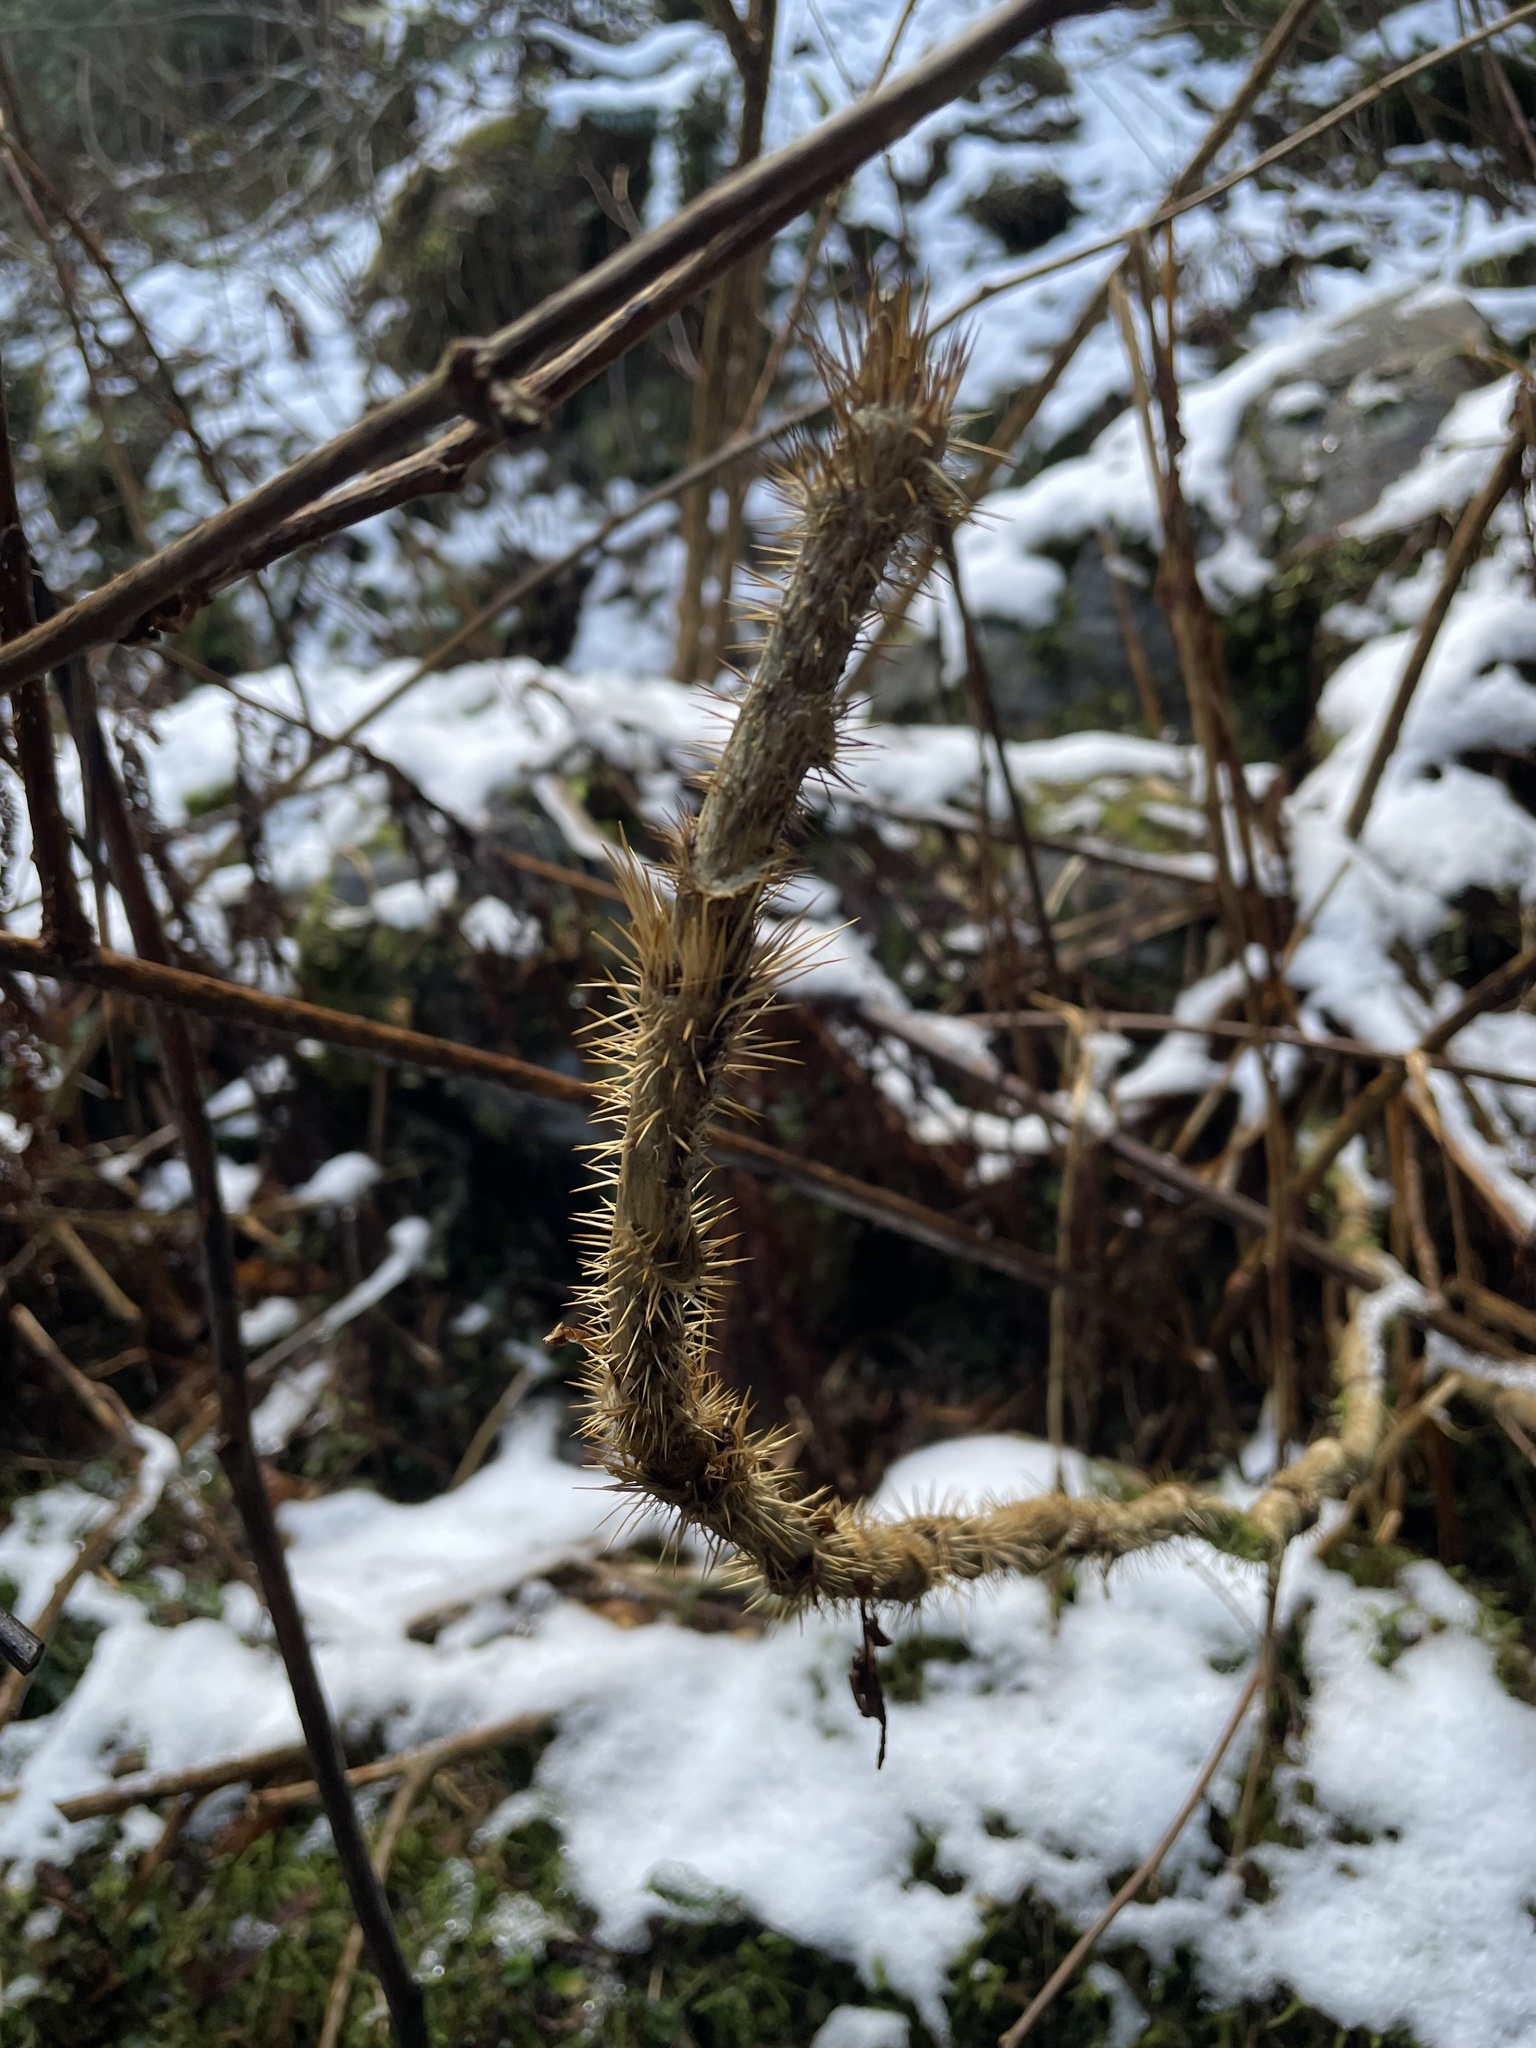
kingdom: Plantae
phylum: Tracheophyta
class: Magnoliopsida
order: Apiales
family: Araliaceae
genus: Oplopanax
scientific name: Oplopanax horridus
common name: Devil's walking-stick
